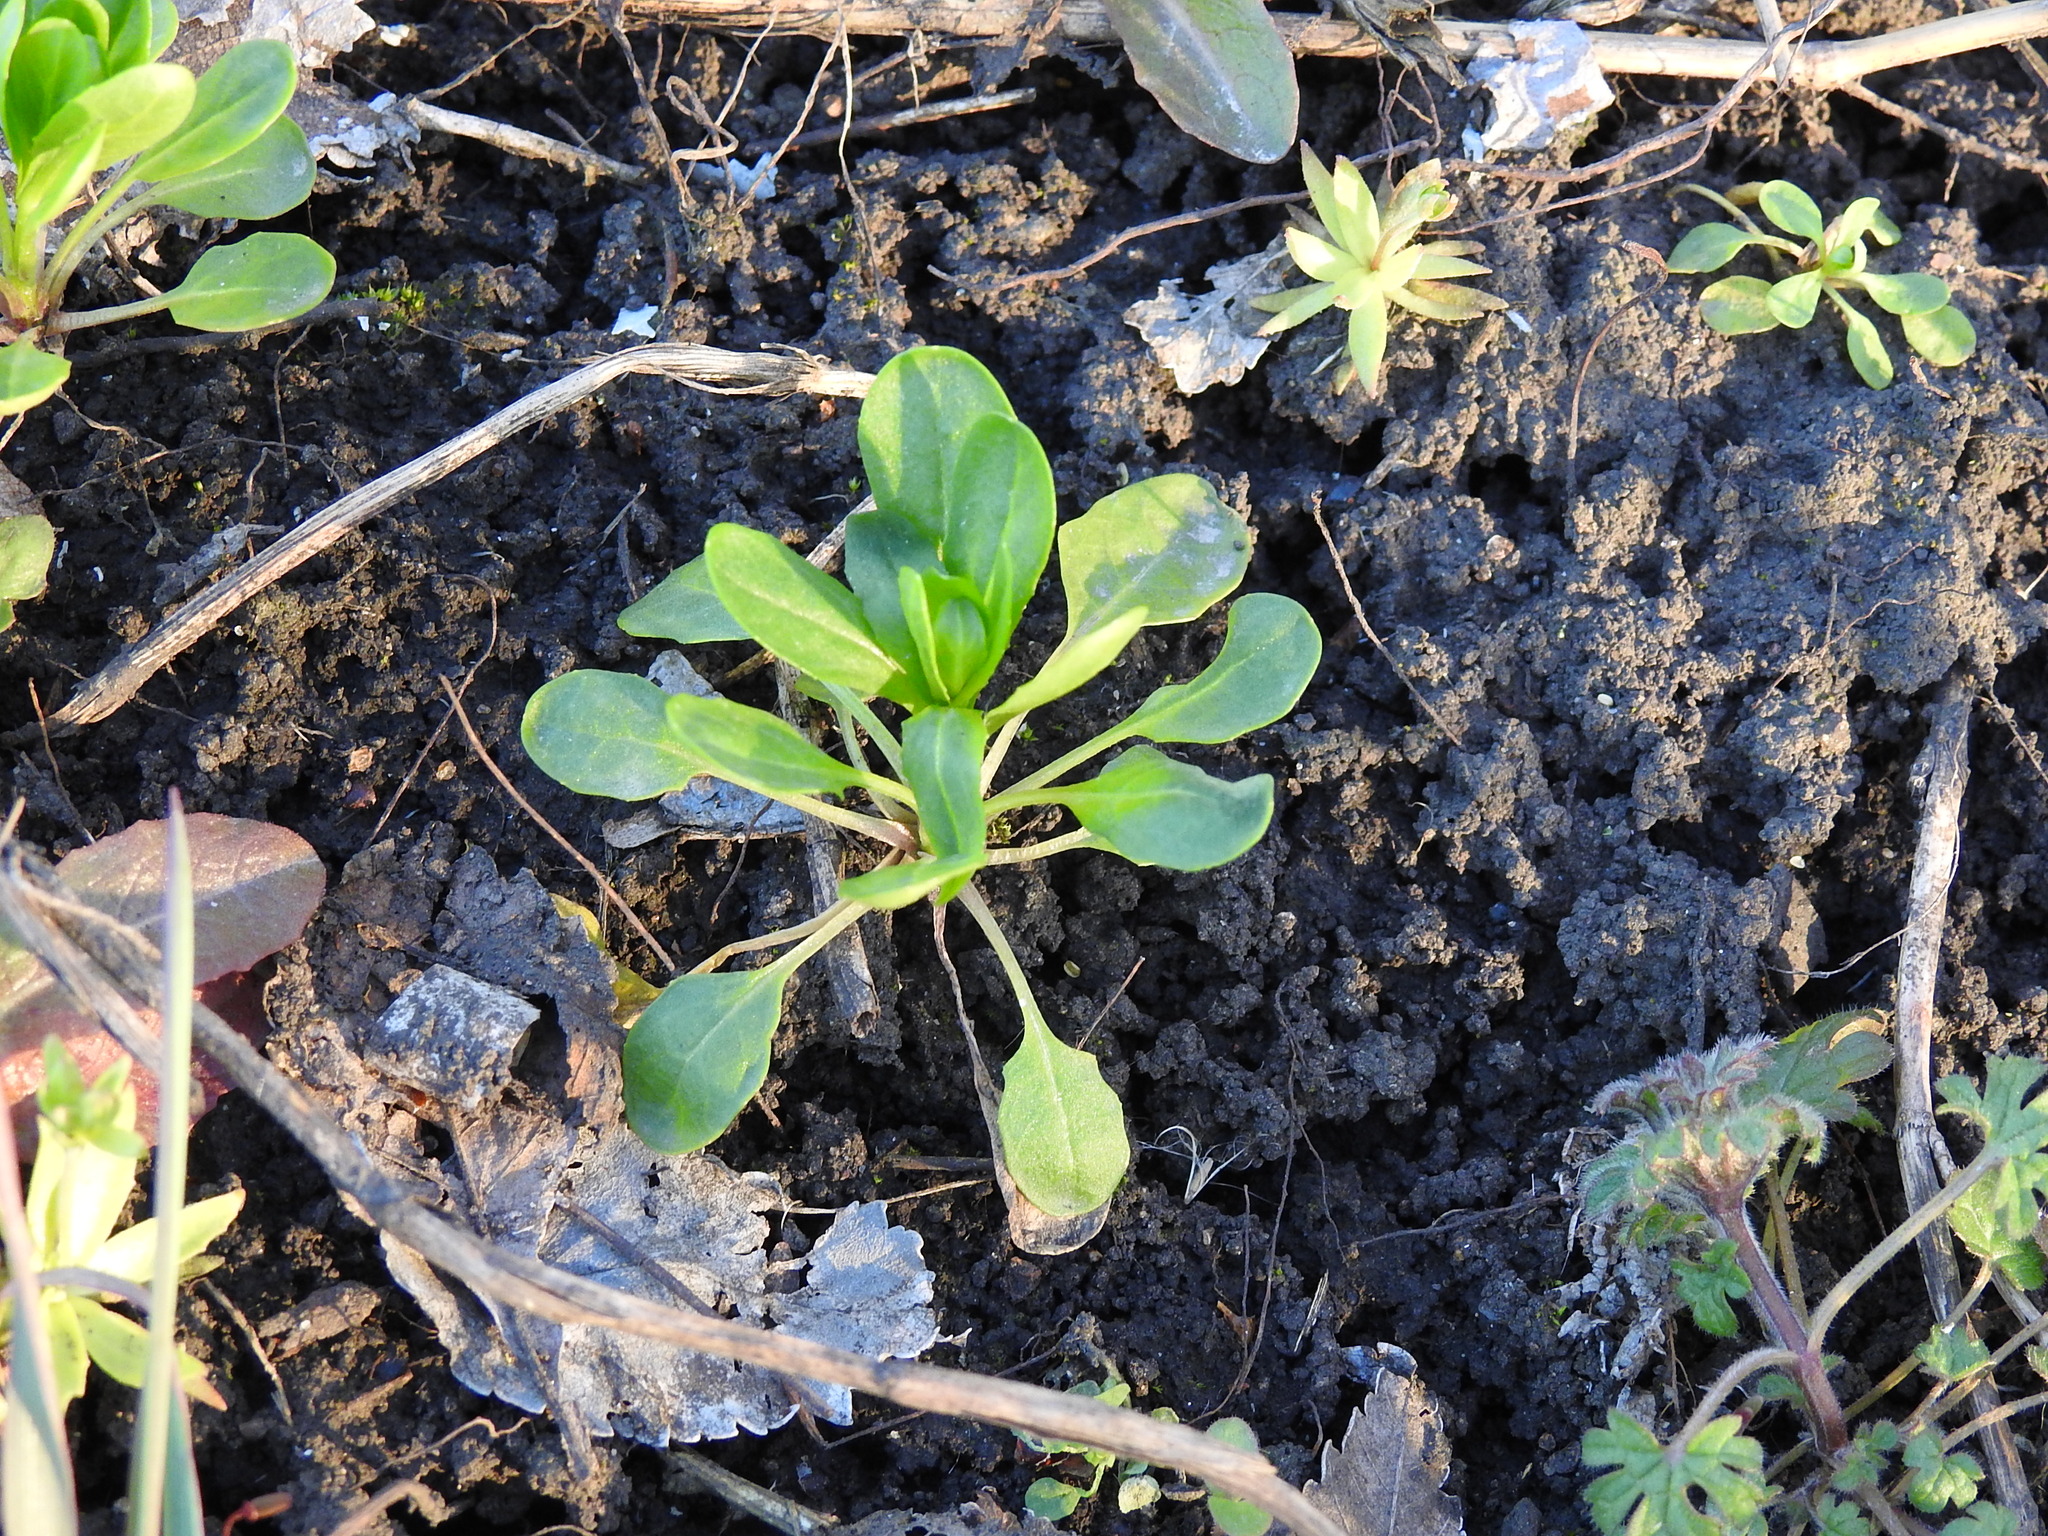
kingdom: Plantae
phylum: Tracheophyta
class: Magnoliopsida
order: Brassicales
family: Brassicaceae
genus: Thlaspi
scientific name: Thlaspi arvense
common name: Field pennycress
